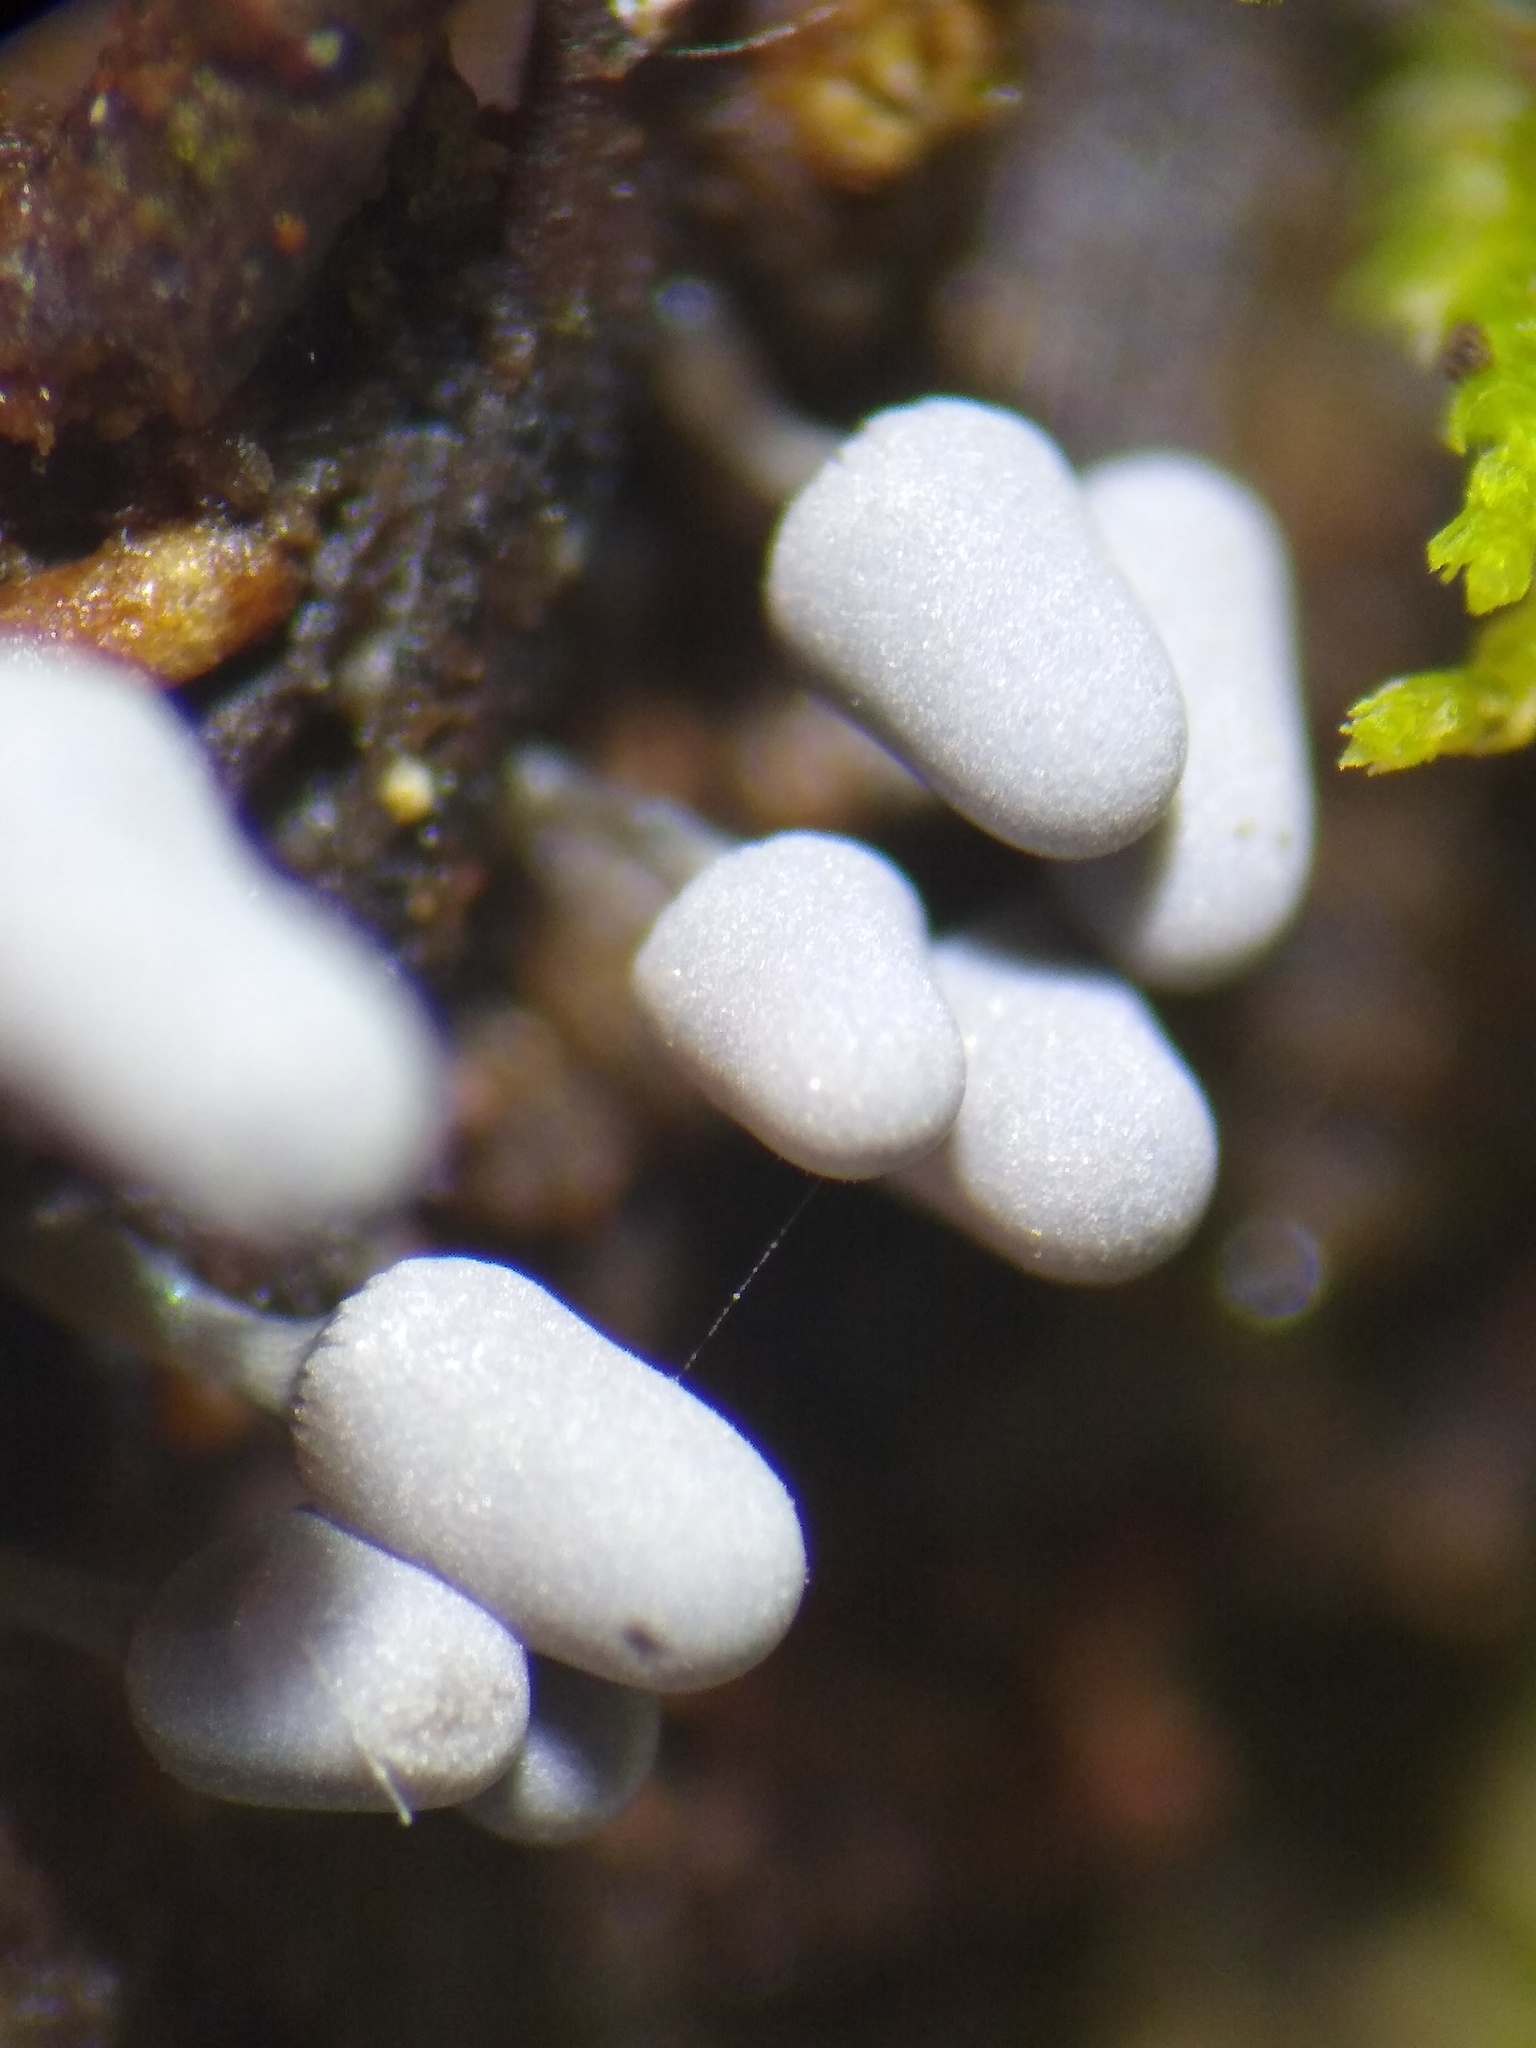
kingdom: Protozoa
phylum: Mycetozoa
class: Myxomycetes
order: Trichiales
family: Arcyriaceae
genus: Arcyria
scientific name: Arcyria cinerea
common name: White carnival candy slime mold
